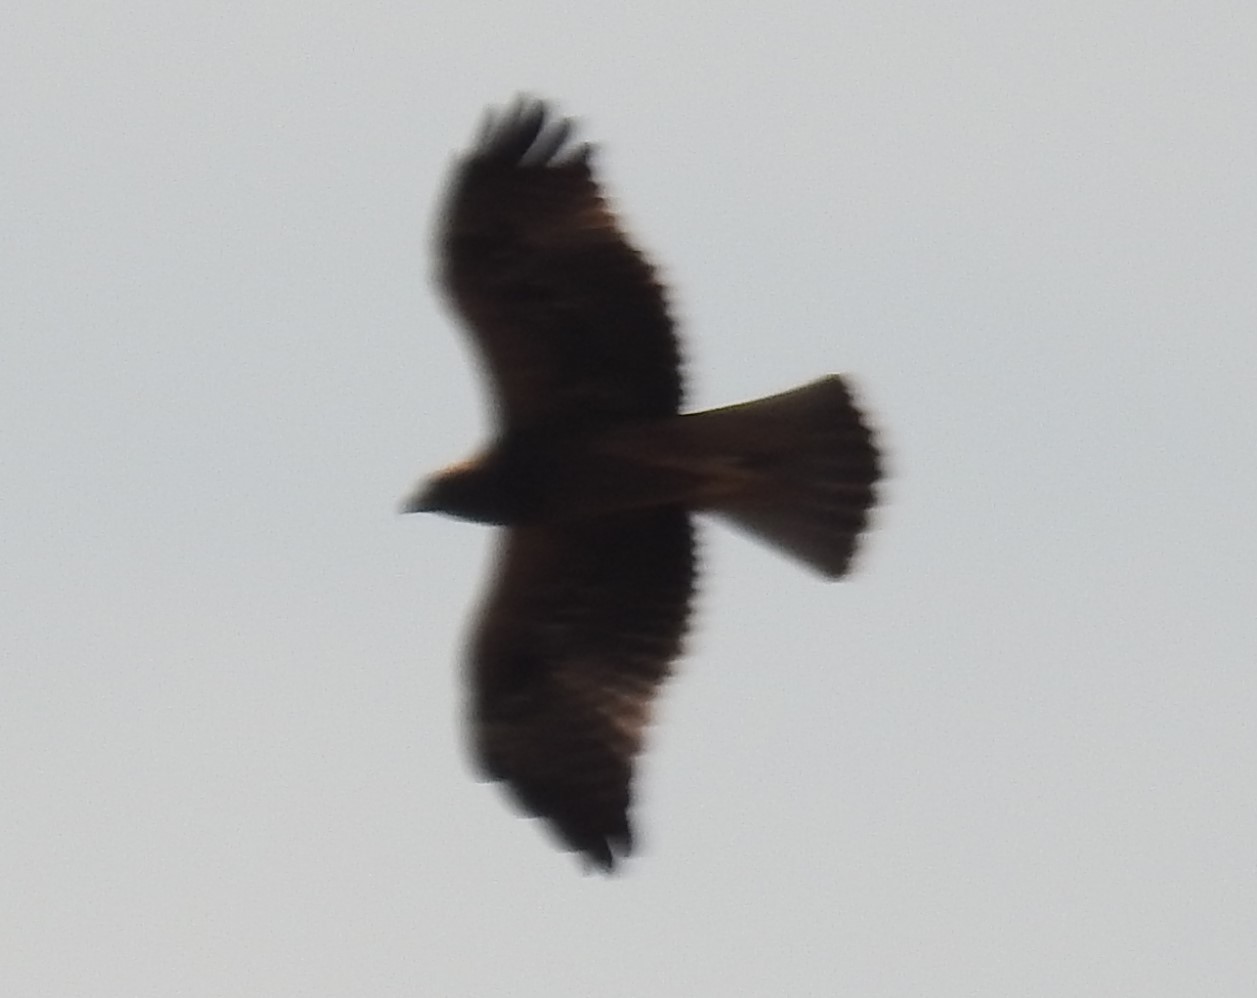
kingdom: Animalia
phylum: Chordata
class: Aves
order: Accipitriformes
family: Accipitridae
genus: Hieraaetus
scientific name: Hieraaetus pennatus
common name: Booted eagle
